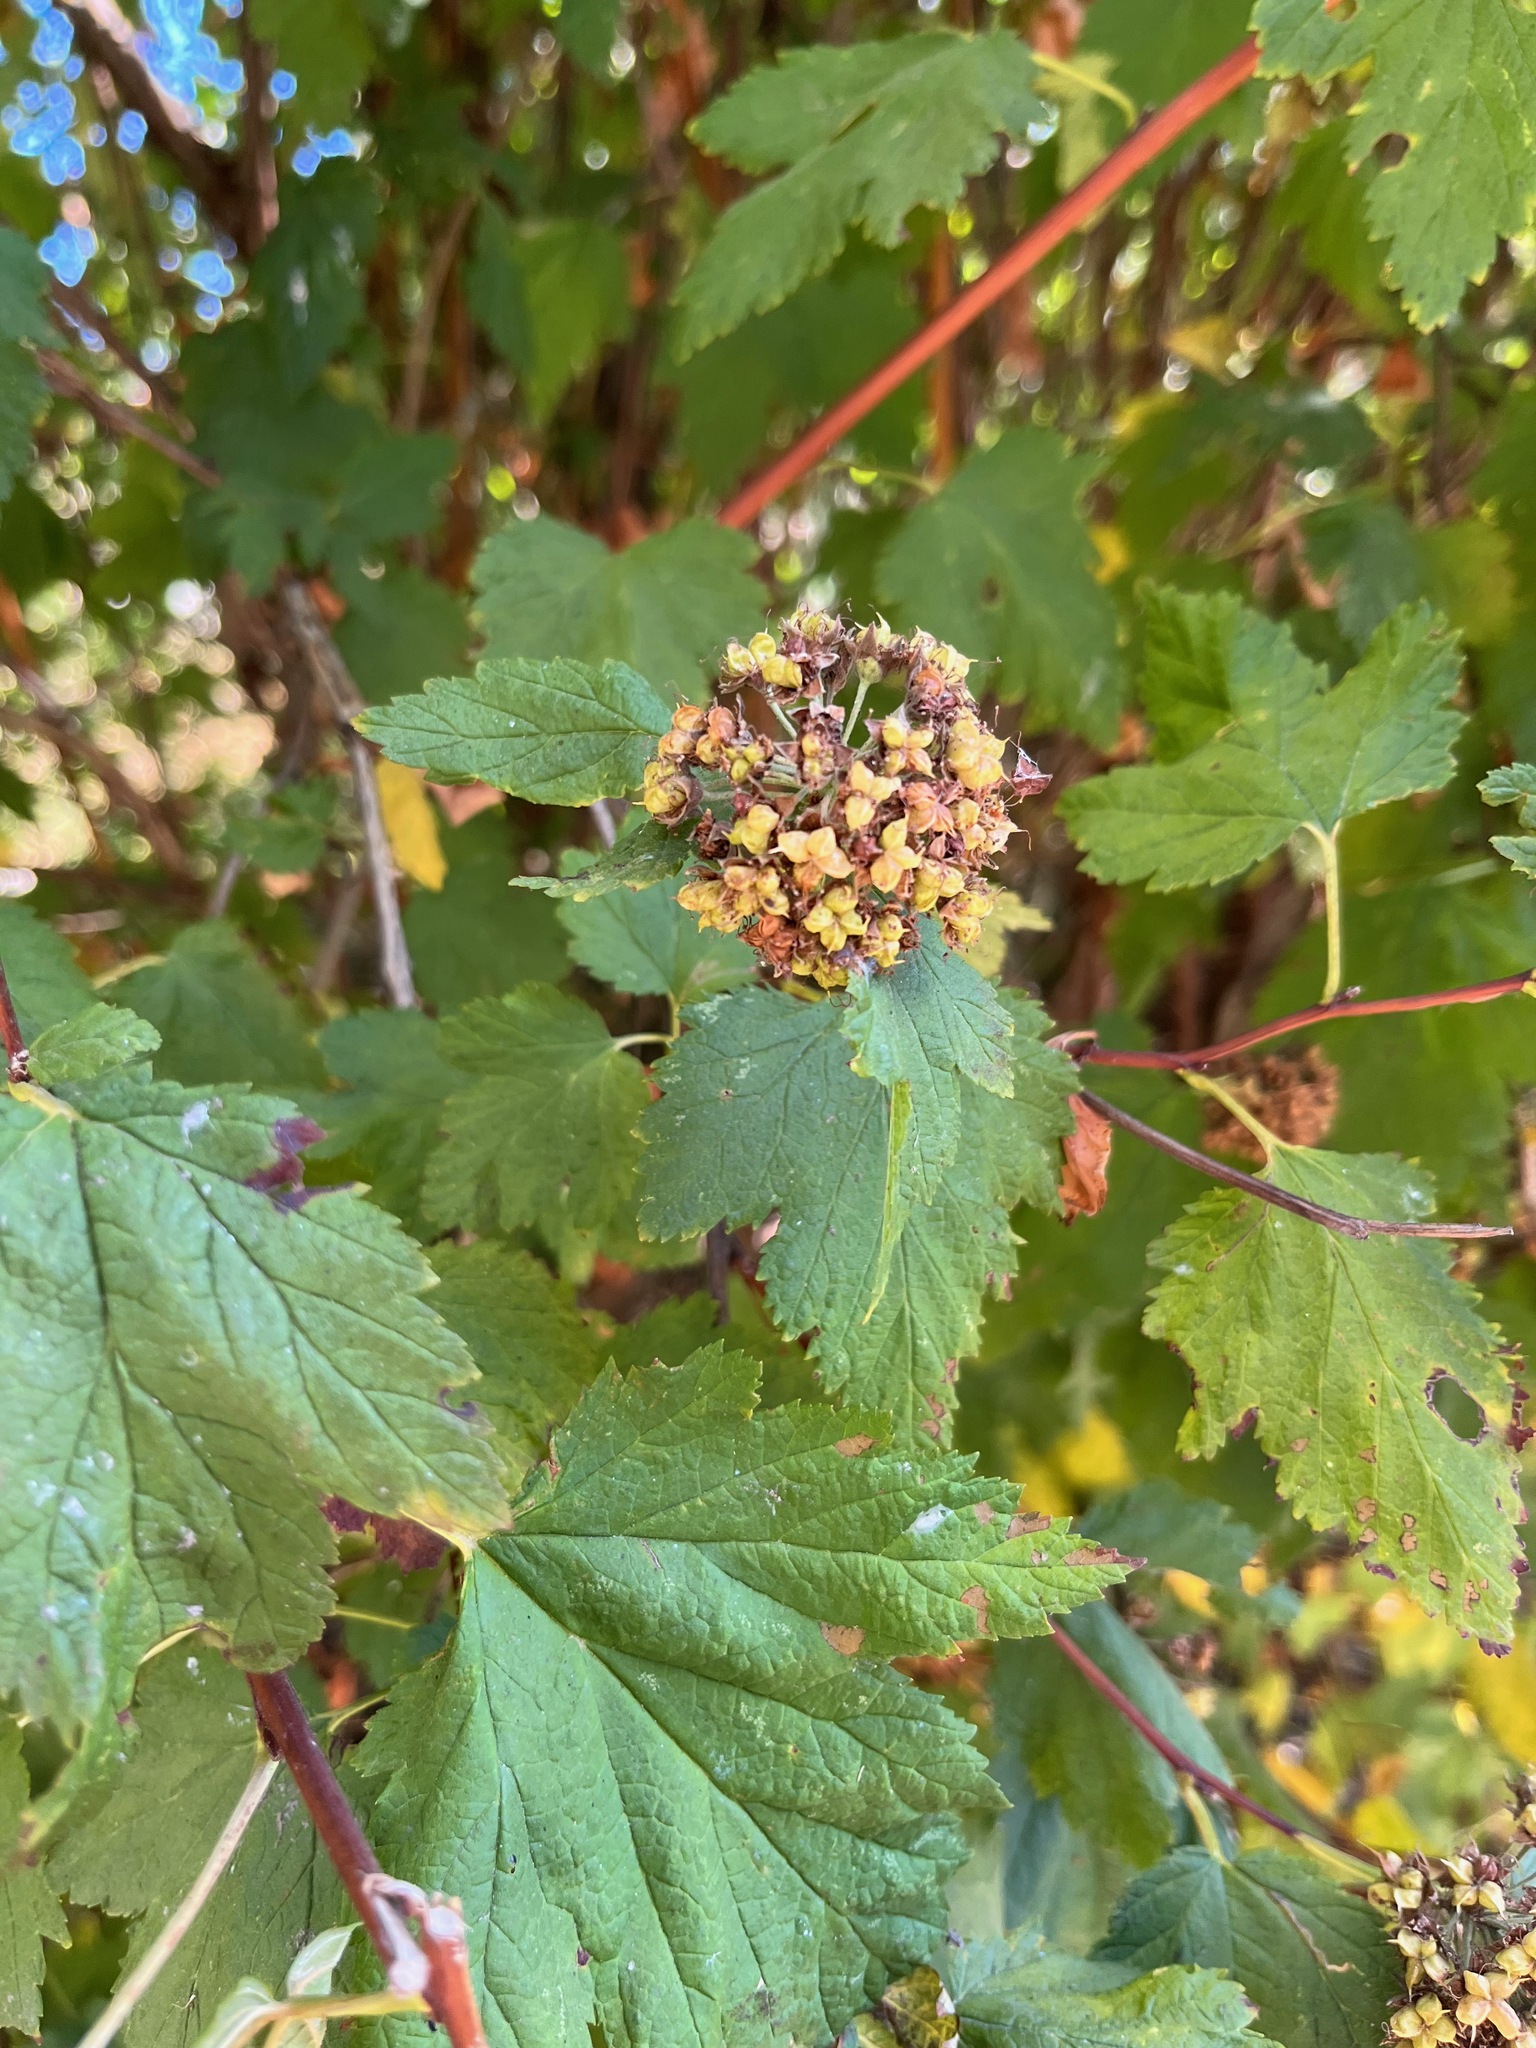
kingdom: Plantae
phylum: Tracheophyta
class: Magnoliopsida
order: Rosales
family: Rosaceae
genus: Physocarpus
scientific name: Physocarpus capitatus
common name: Pacific ninebark
